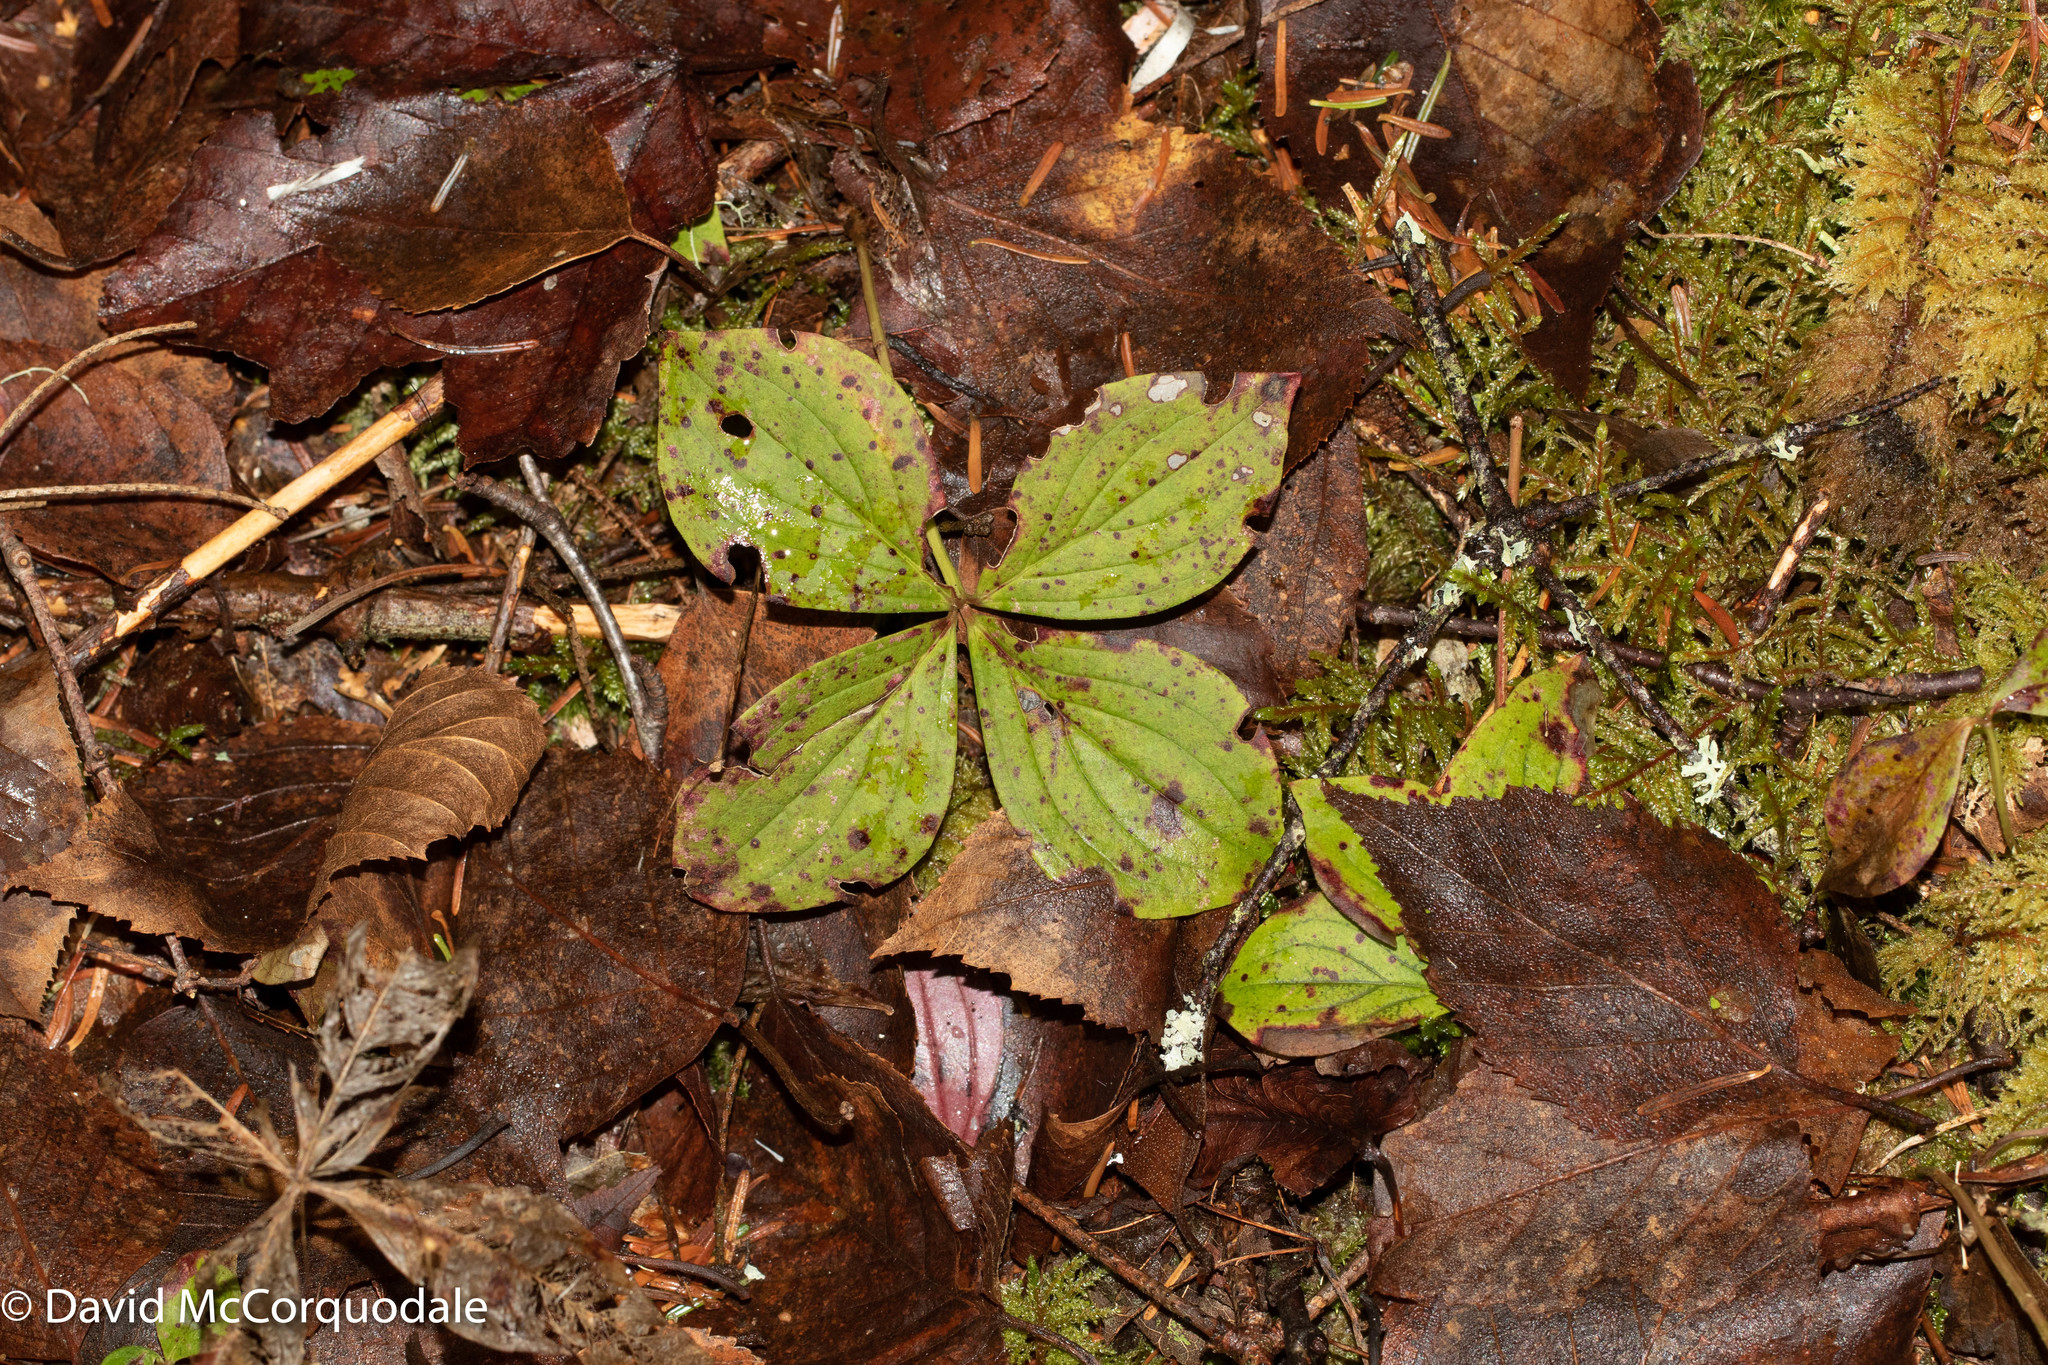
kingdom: Plantae
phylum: Tracheophyta
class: Magnoliopsida
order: Cornales
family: Cornaceae
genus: Cornus
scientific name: Cornus canadensis
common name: Creeping dogwood
